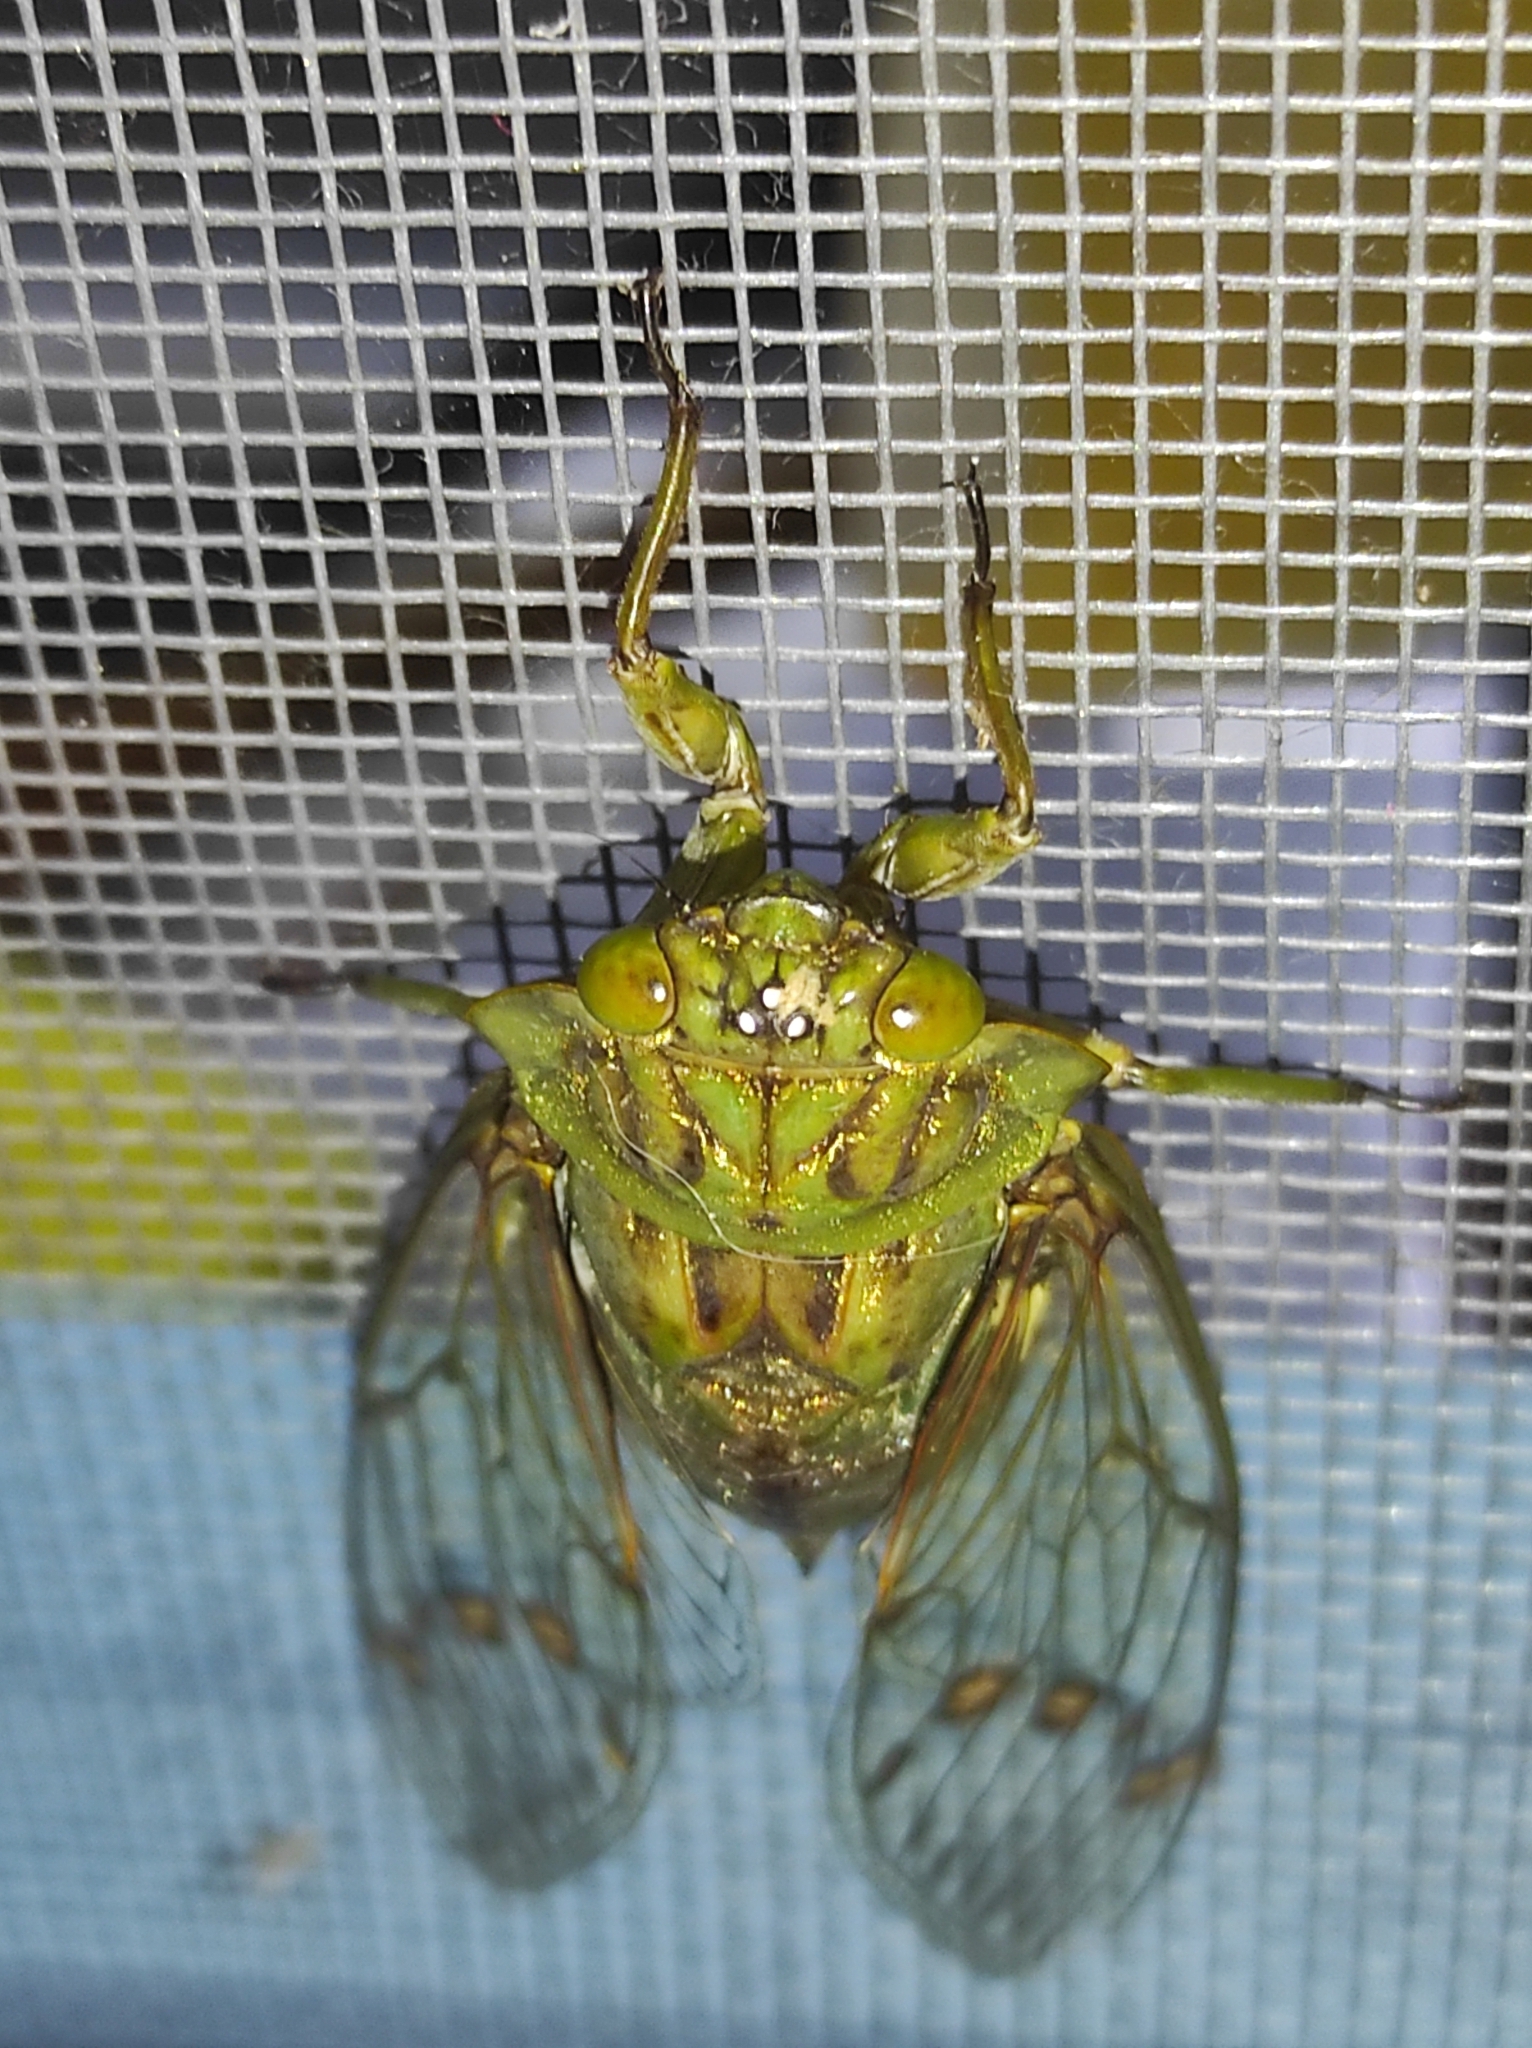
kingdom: Animalia
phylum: Arthropoda
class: Insecta
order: Hemiptera
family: Cicadidae
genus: Zammara
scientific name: Zammara tympanum
